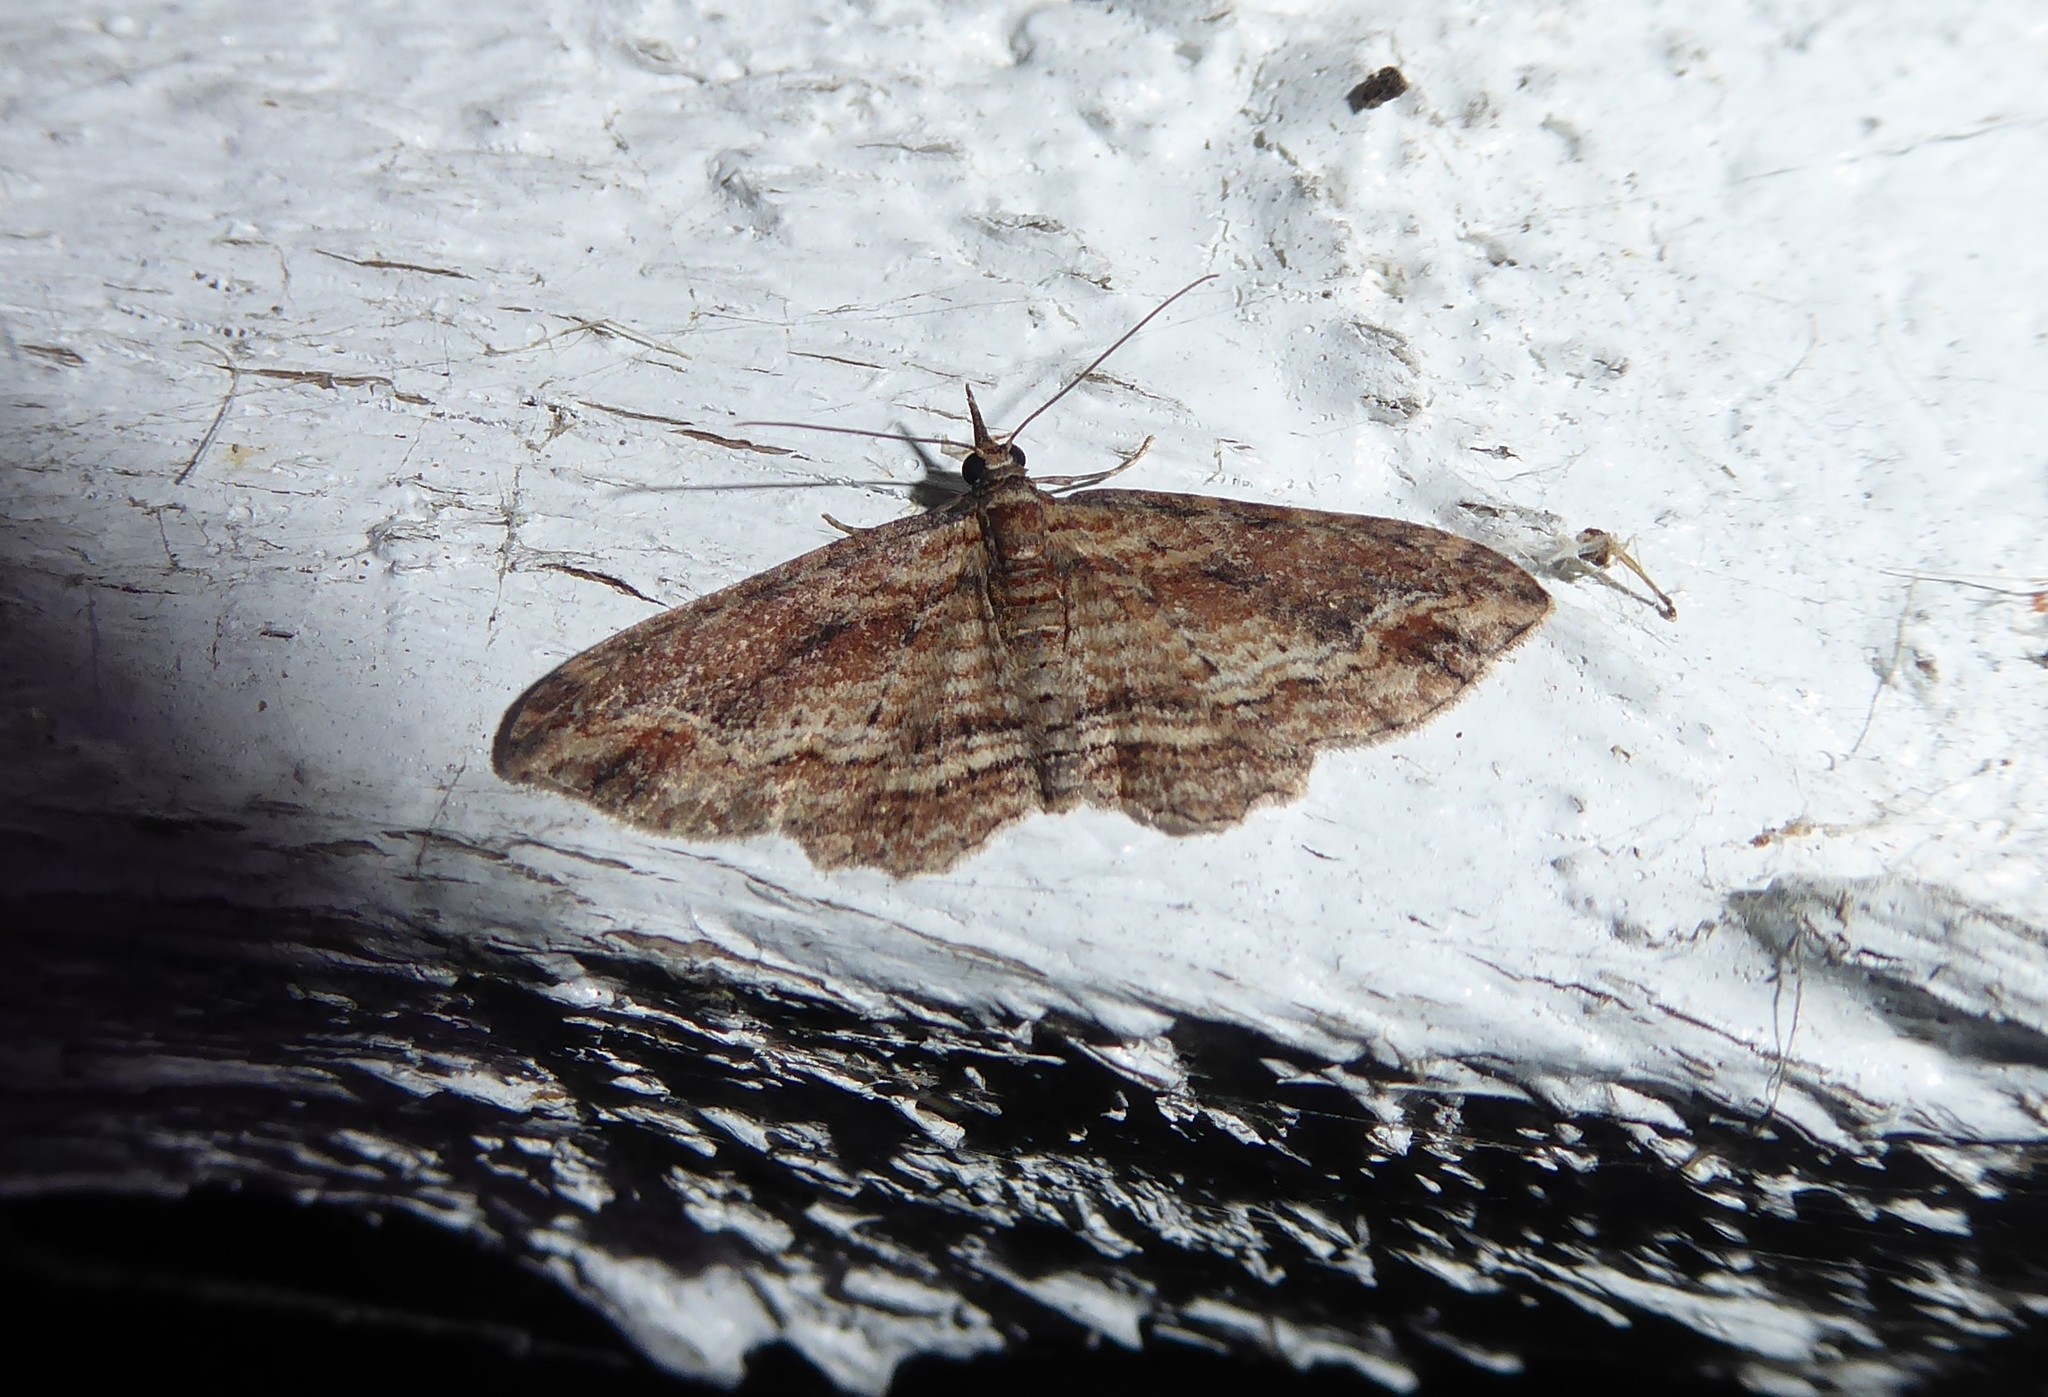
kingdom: Animalia
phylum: Arthropoda
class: Insecta
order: Lepidoptera
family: Geometridae
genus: Chloroclystis
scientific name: Chloroclystis filata
